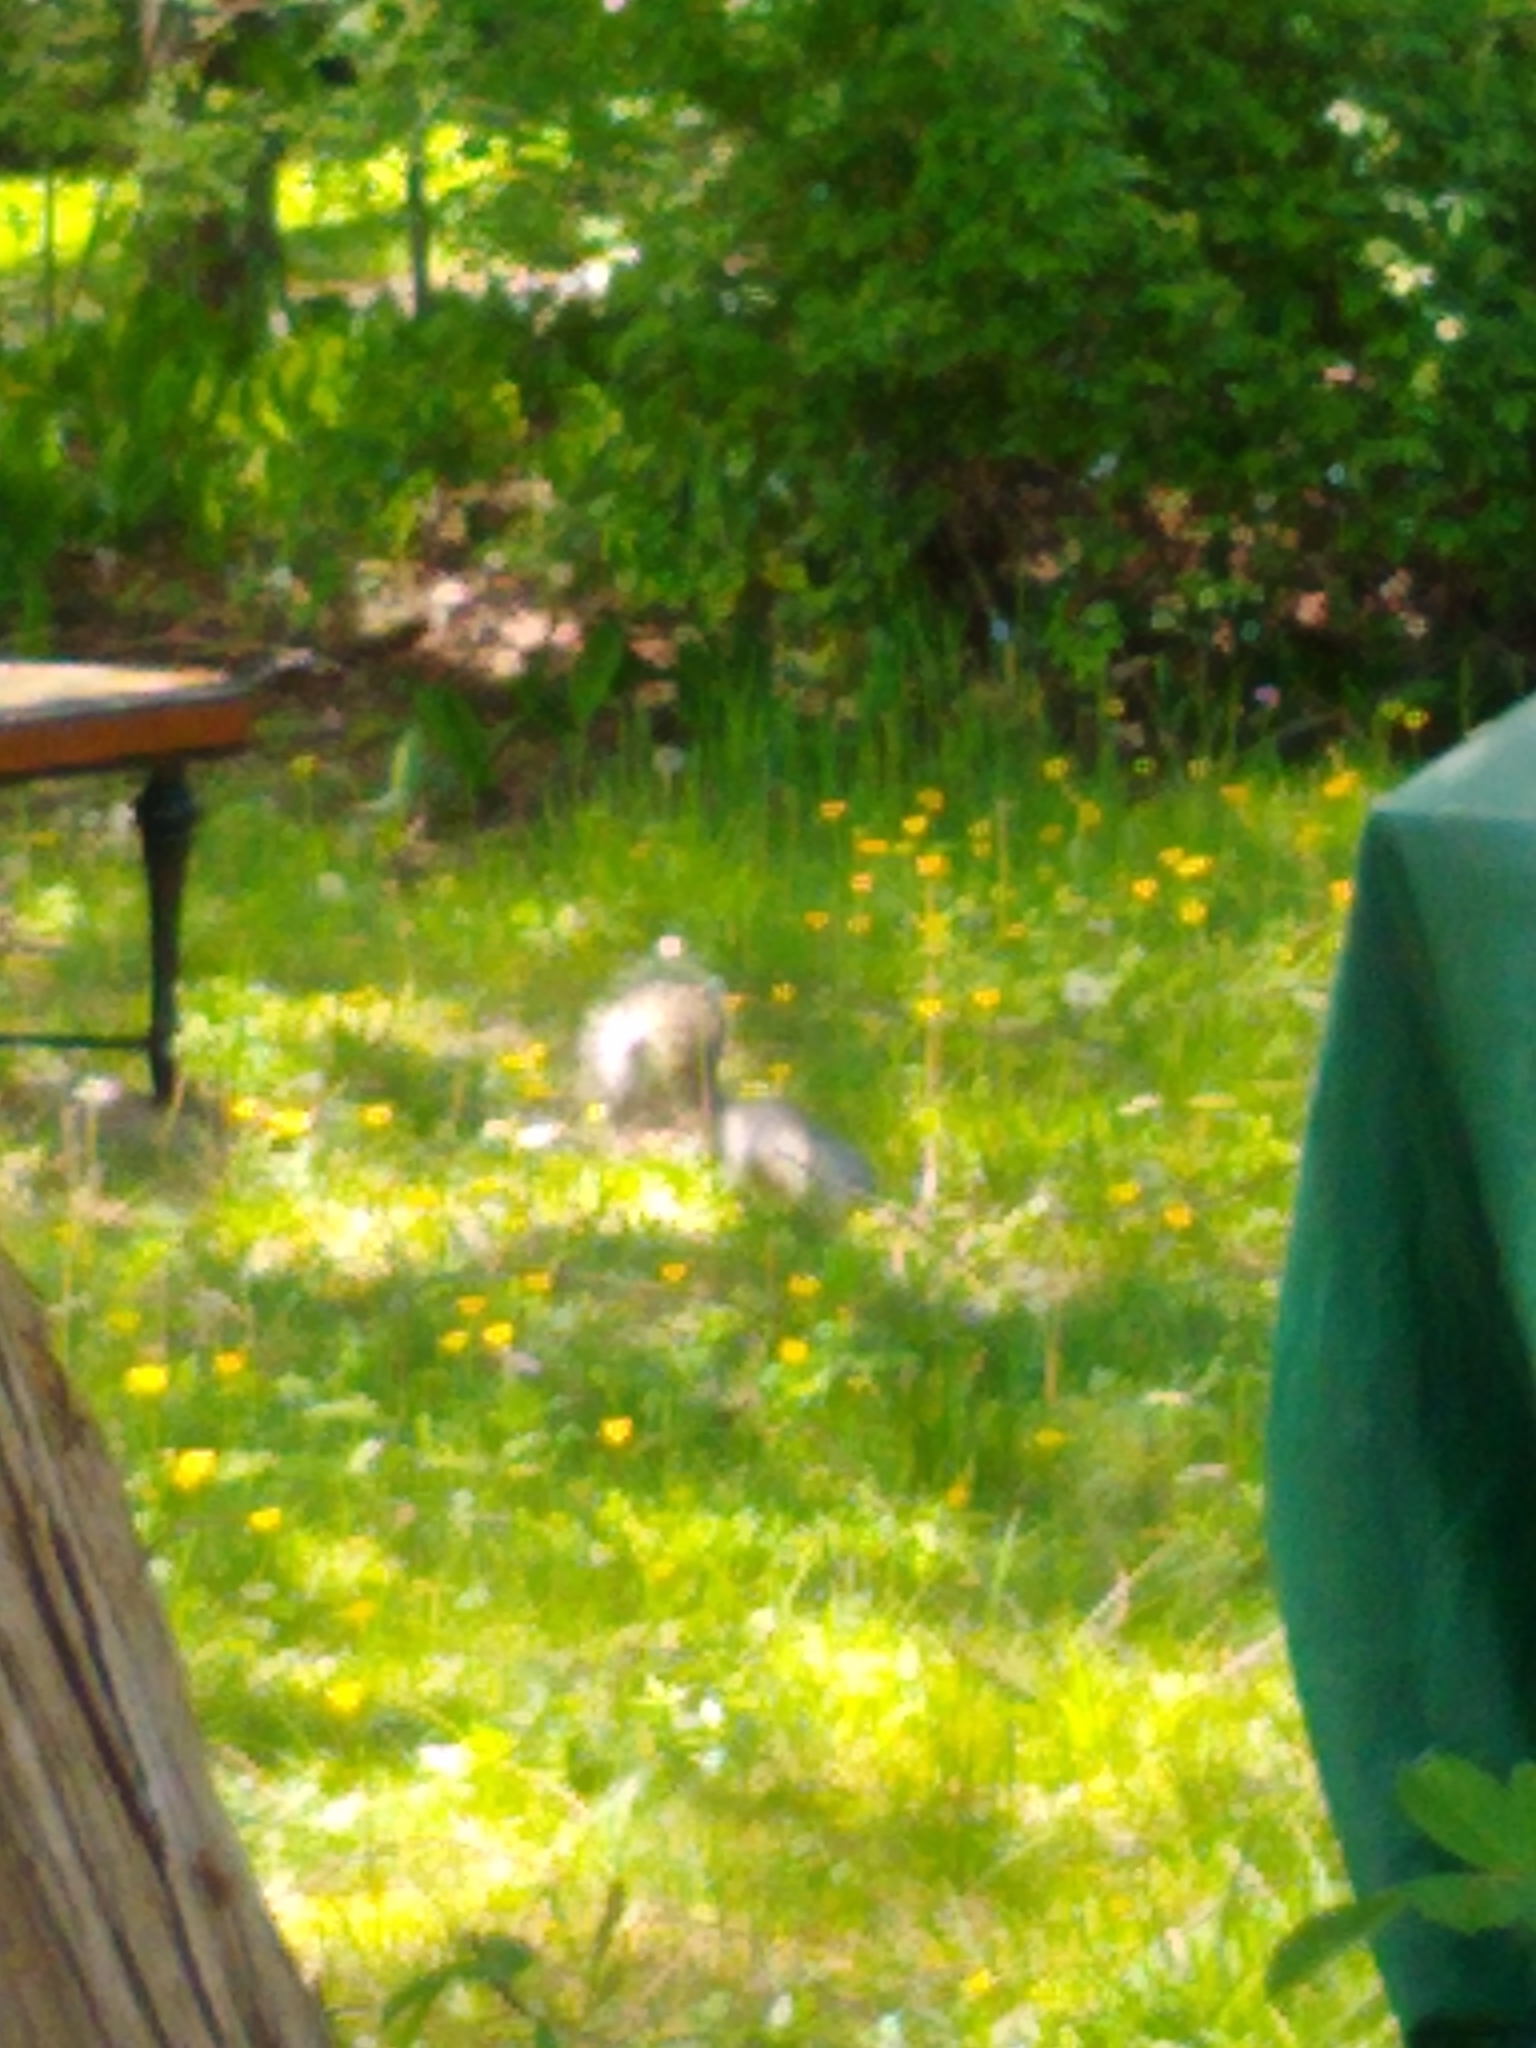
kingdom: Animalia
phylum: Chordata
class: Mammalia
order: Rodentia
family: Sciuridae
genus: Sciurus
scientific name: Sciurus carolinensis
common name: Eastern gray squirrel
